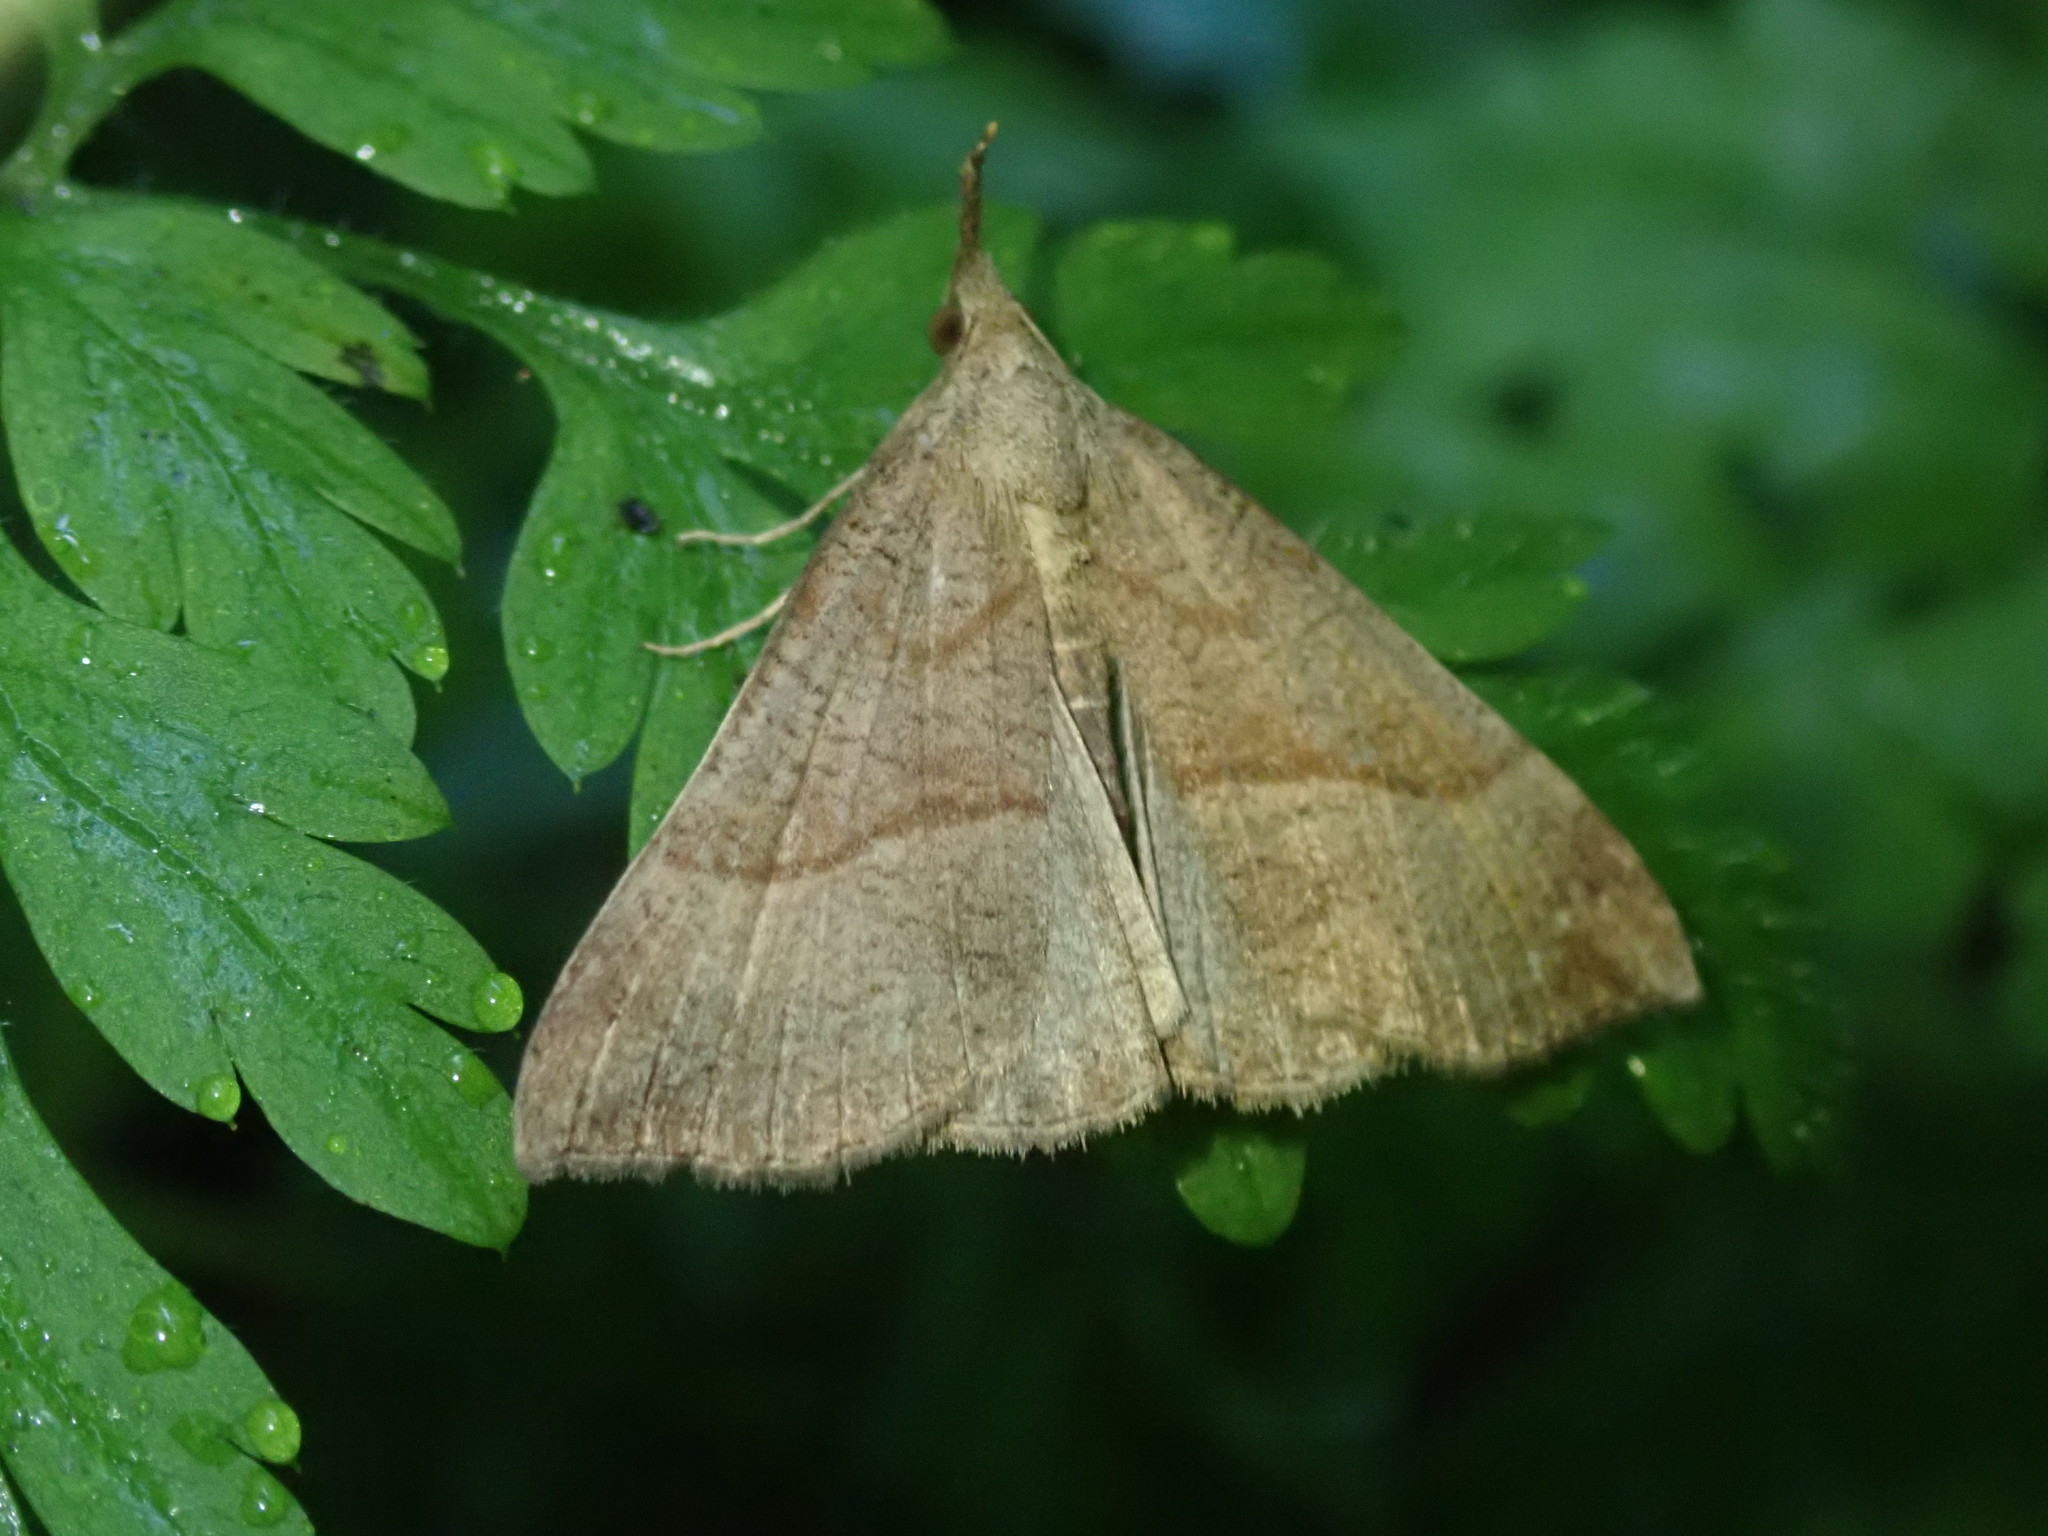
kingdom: Animalia
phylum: Arthropoda
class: Insecta
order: Lepidoptera
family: Erebidae
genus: Hypena
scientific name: Hypena proboscidalis
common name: Snout
